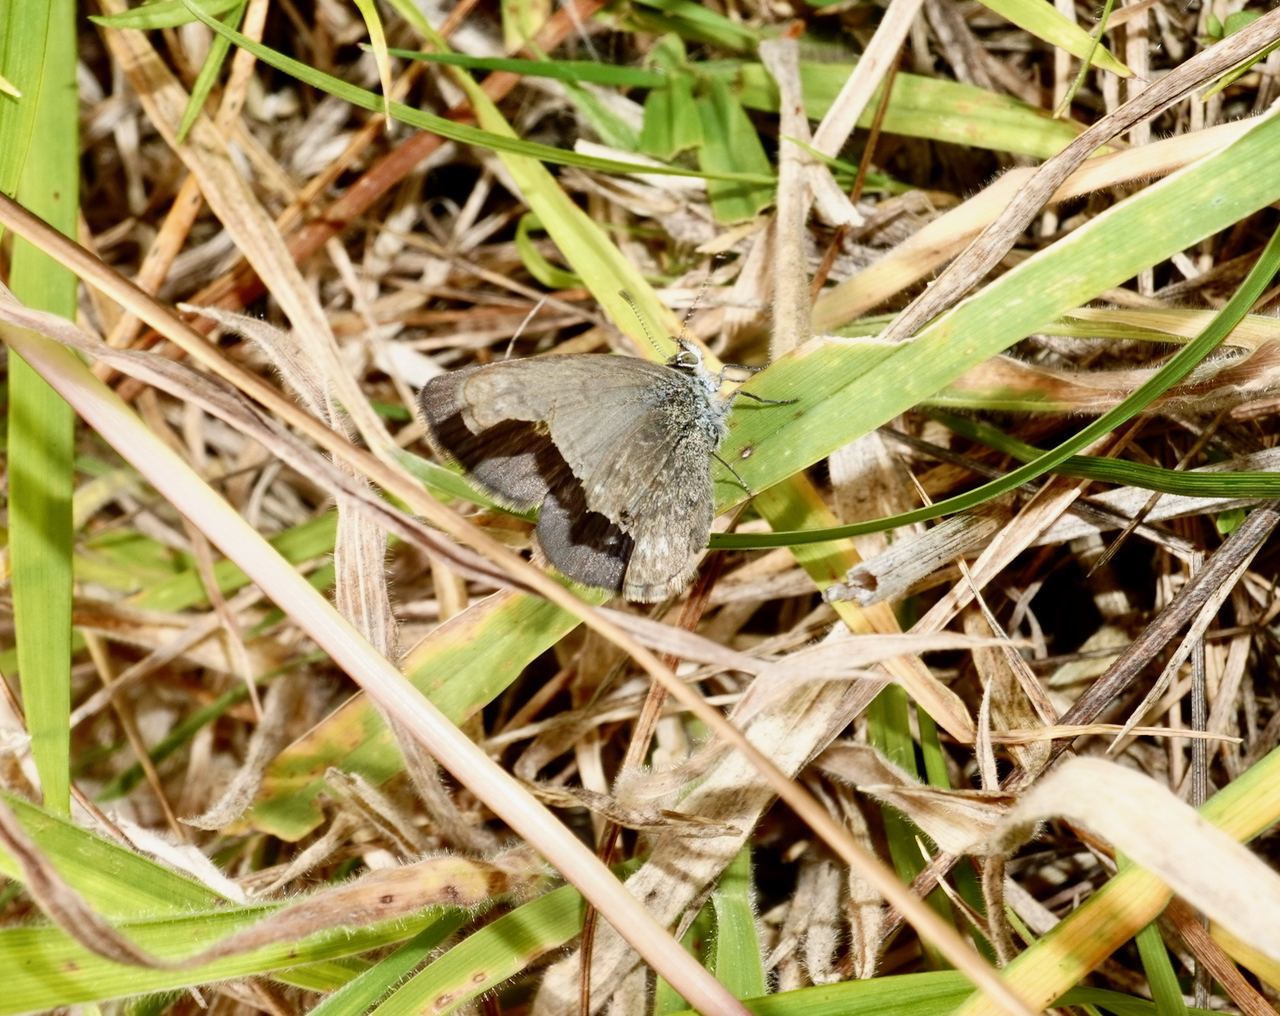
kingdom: Animalia
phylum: Arthropoda
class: Insecta
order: Lepidoptera
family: Lycaenidae
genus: Zizina
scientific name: Zizina labradus
